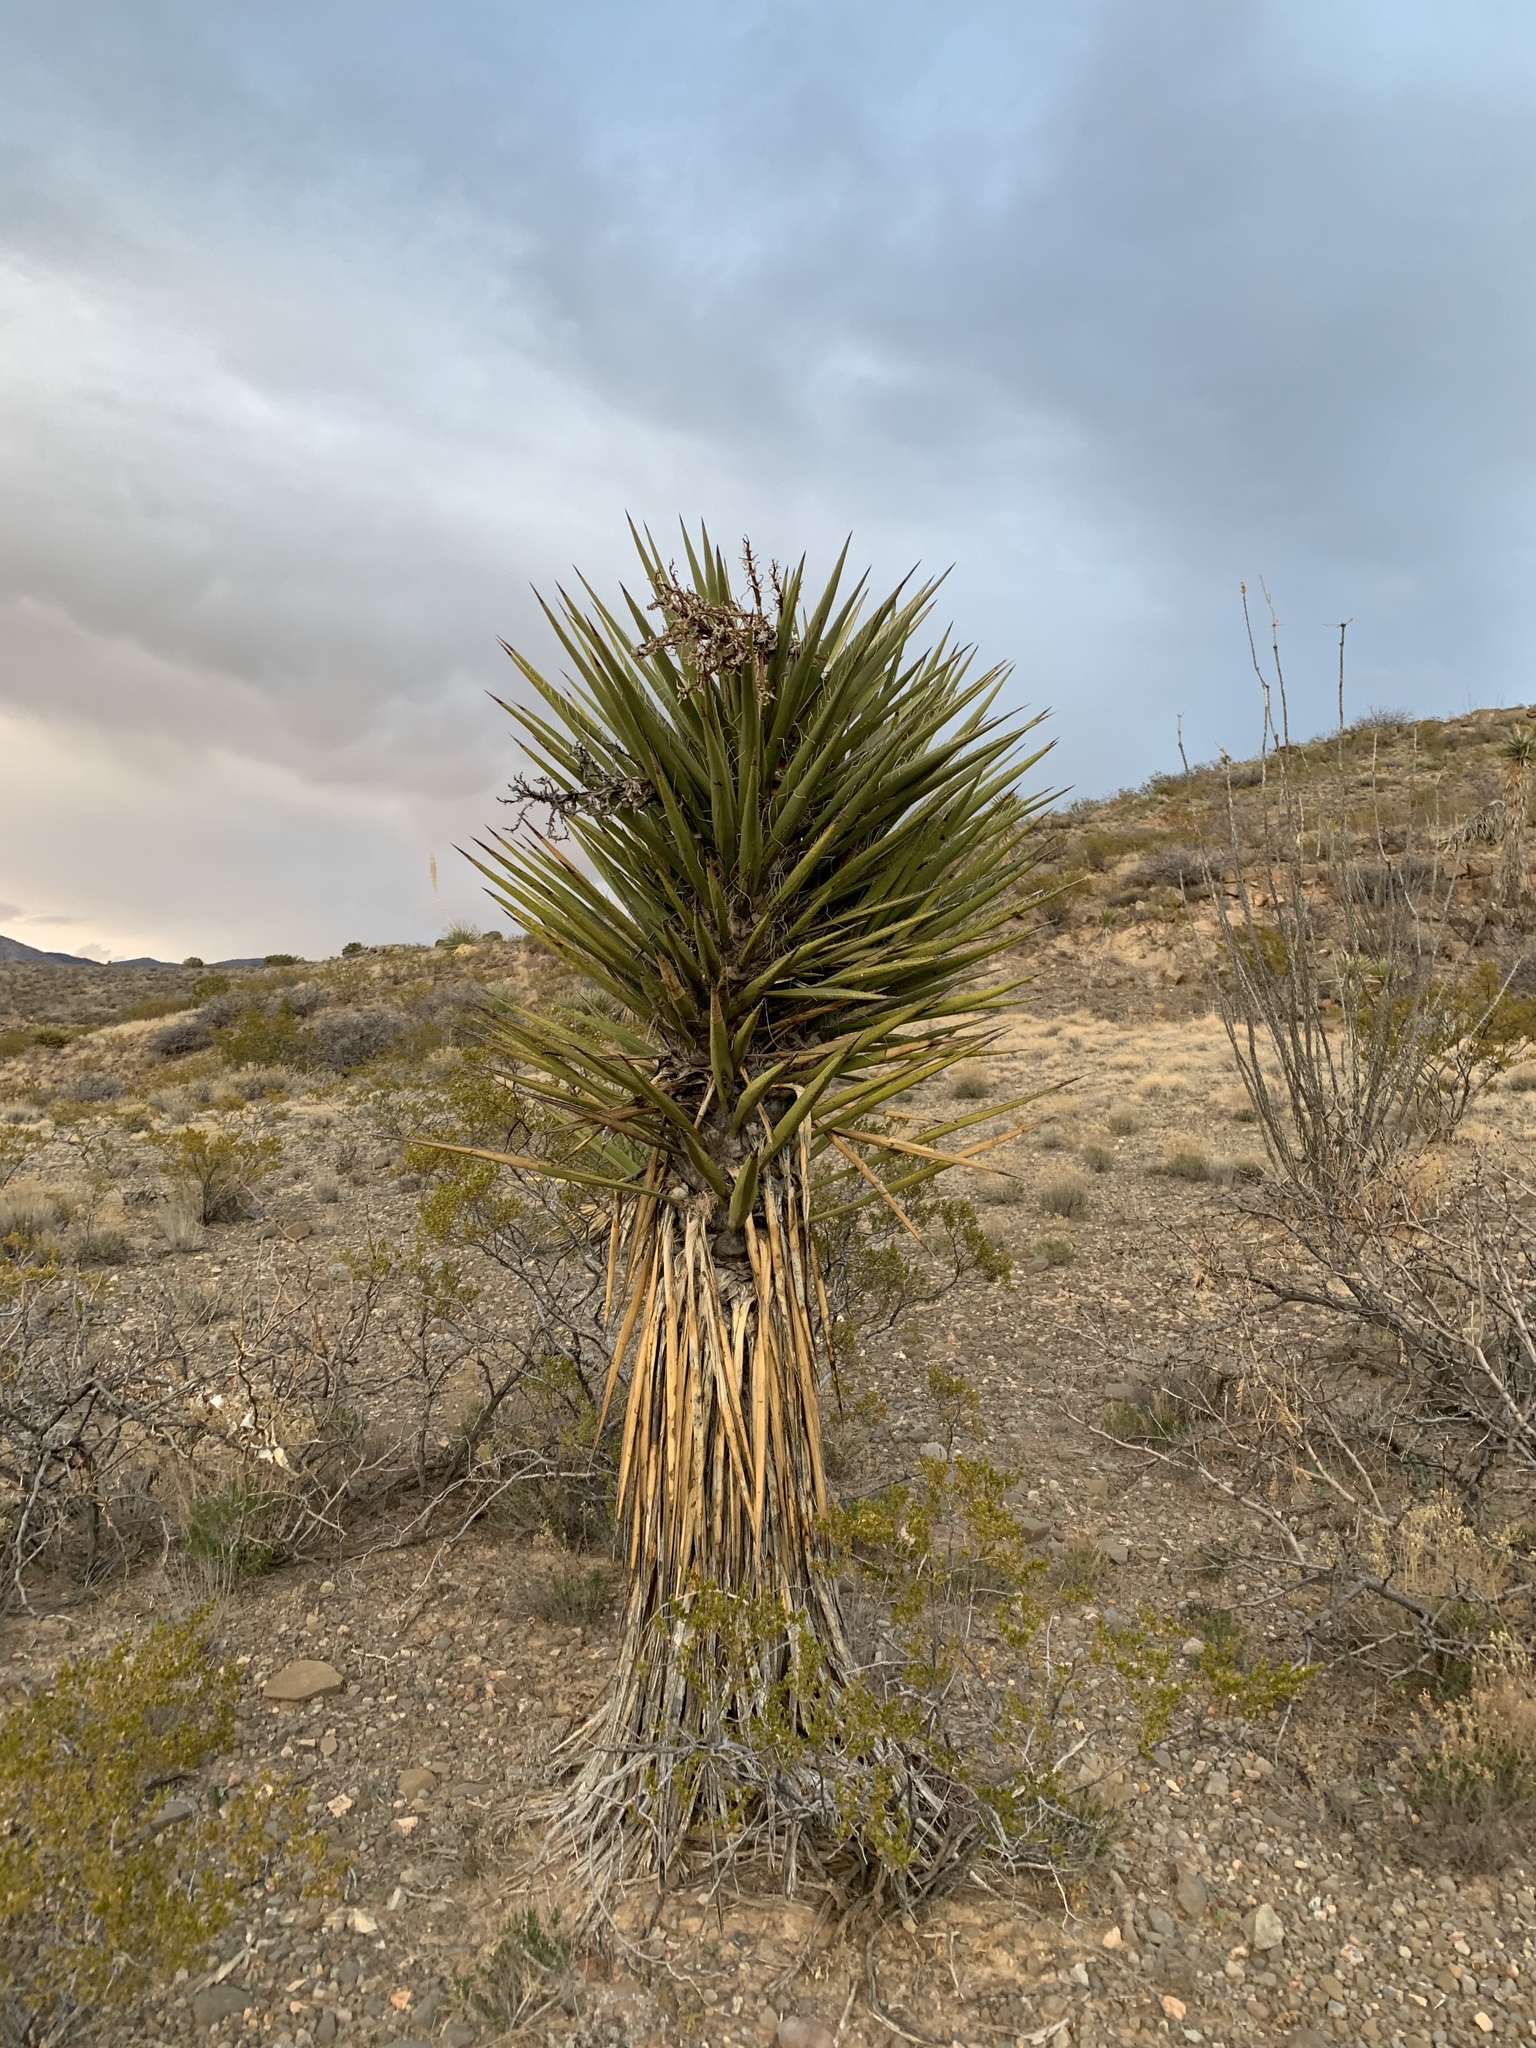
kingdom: Plantae
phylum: Tracheophyta
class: Liliopsida
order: Asparagales
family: Asparagaceae
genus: Yucca
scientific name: Yucca treculiana
